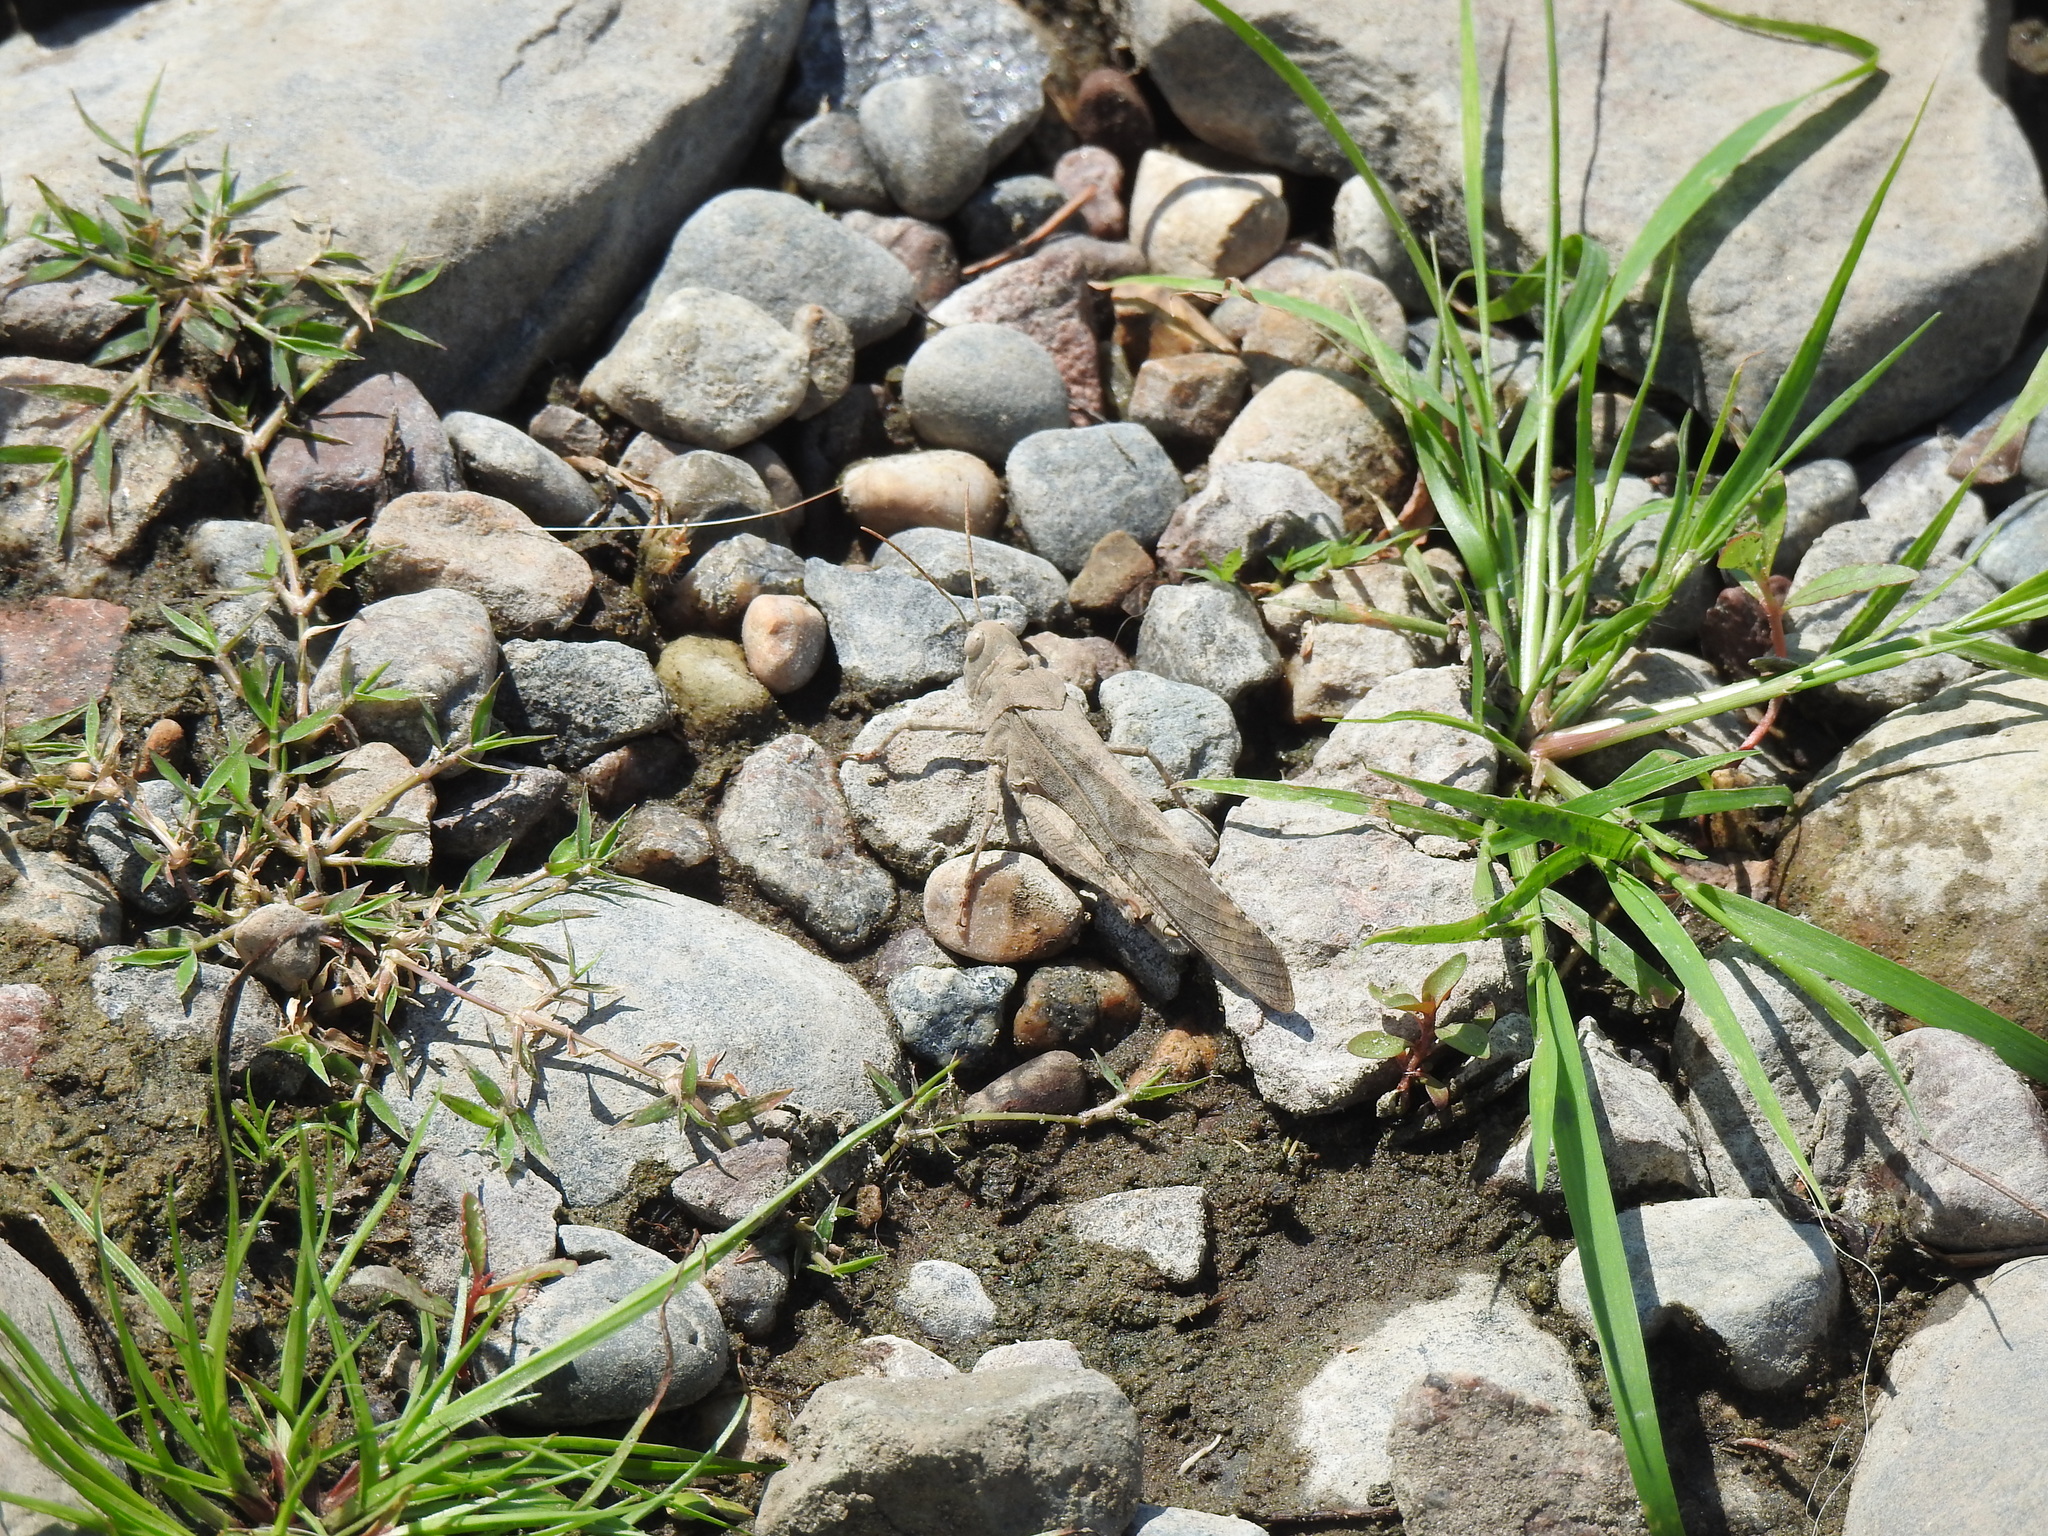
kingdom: Animalia
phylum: Arthropoda
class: Insecta
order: Orthoptera
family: Acrididae
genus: Dissosteira
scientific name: Dissosteira carolina
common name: Carolina grasshopper
